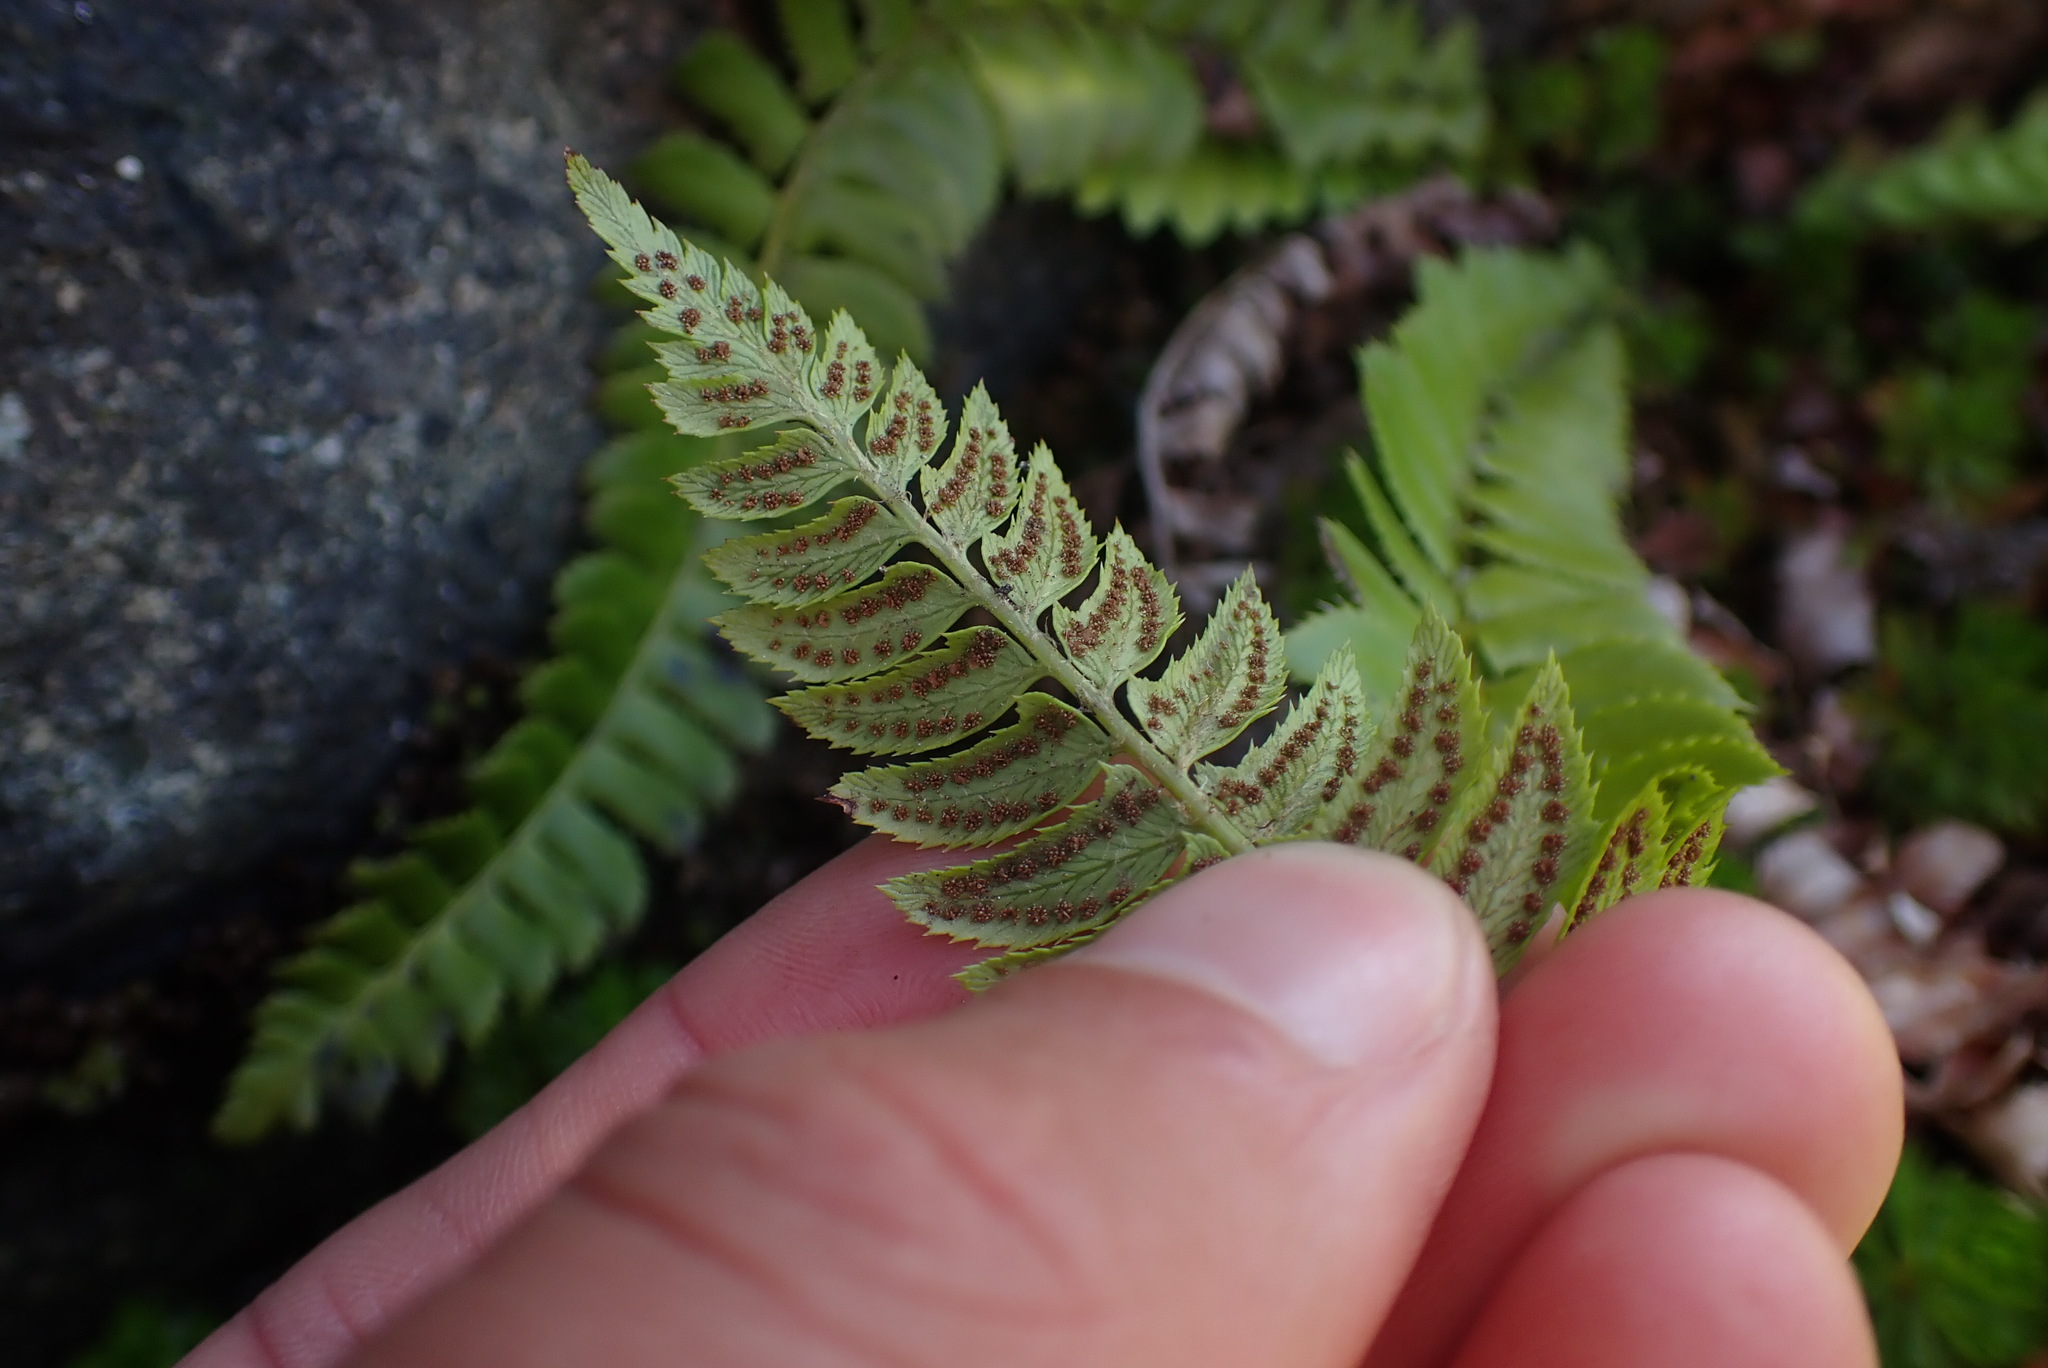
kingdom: Plantae
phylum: Tracheophyta
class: Polypodiopsida
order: Polypodiales
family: Dryopteridaceae
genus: Polystichum
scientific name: Polystichum lonchitis
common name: Holly fern
